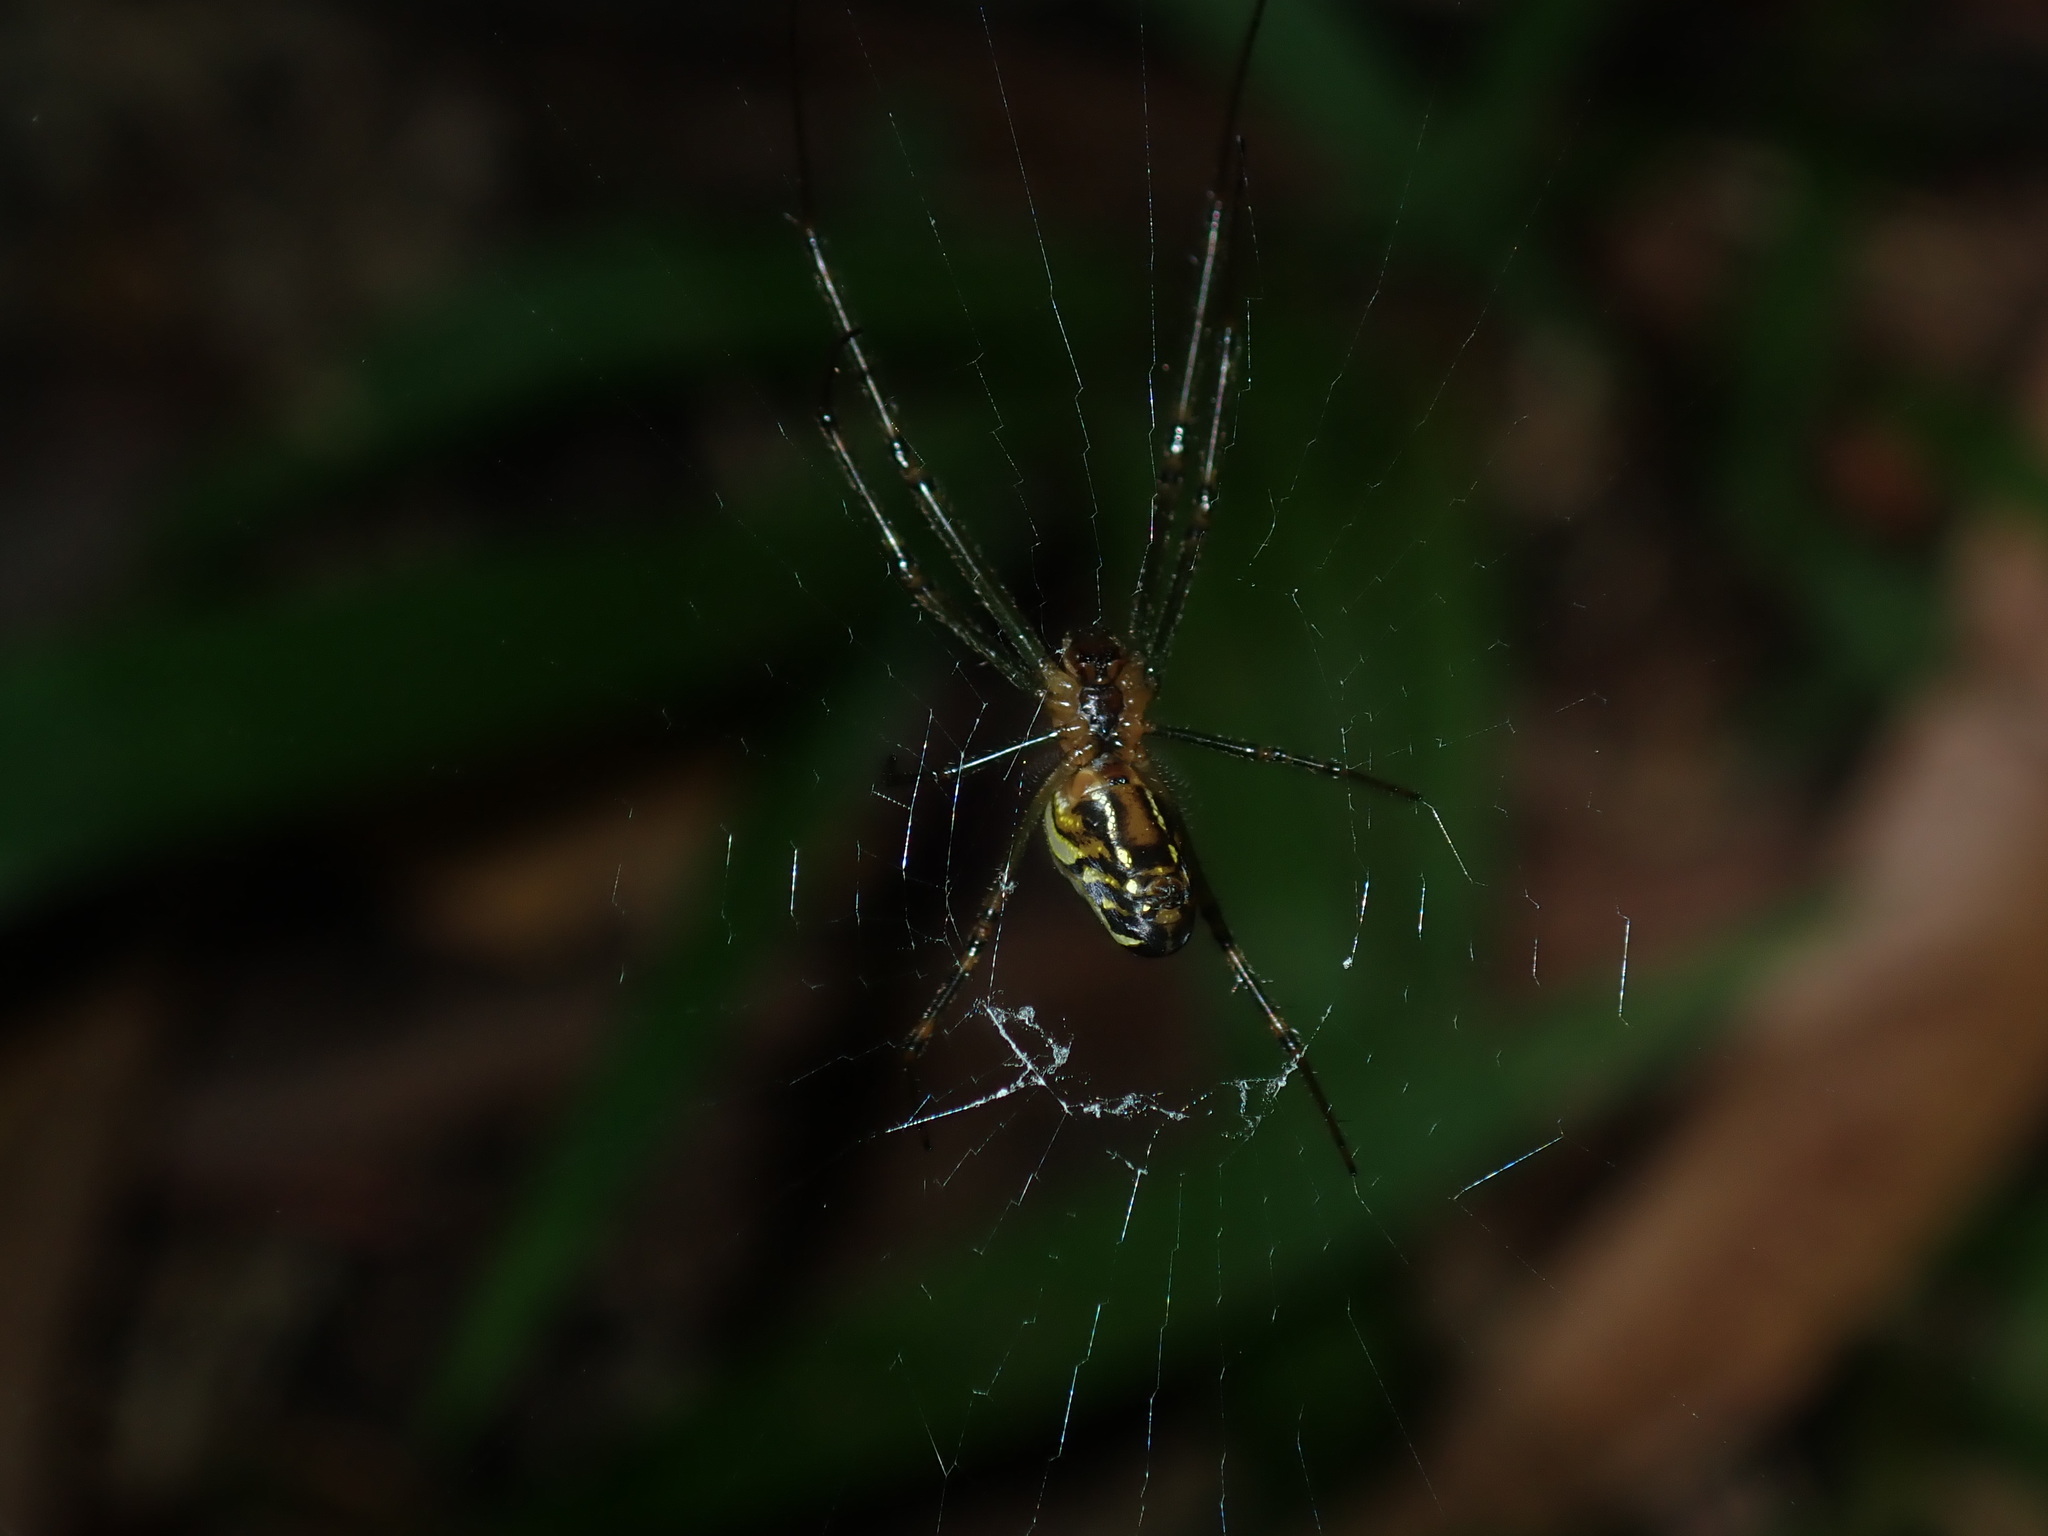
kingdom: Animalia
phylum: Arthropoda
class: Arachnida
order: Araneae
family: Tetragnathidae
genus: Leucauge
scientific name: Leucauge dromedaria
